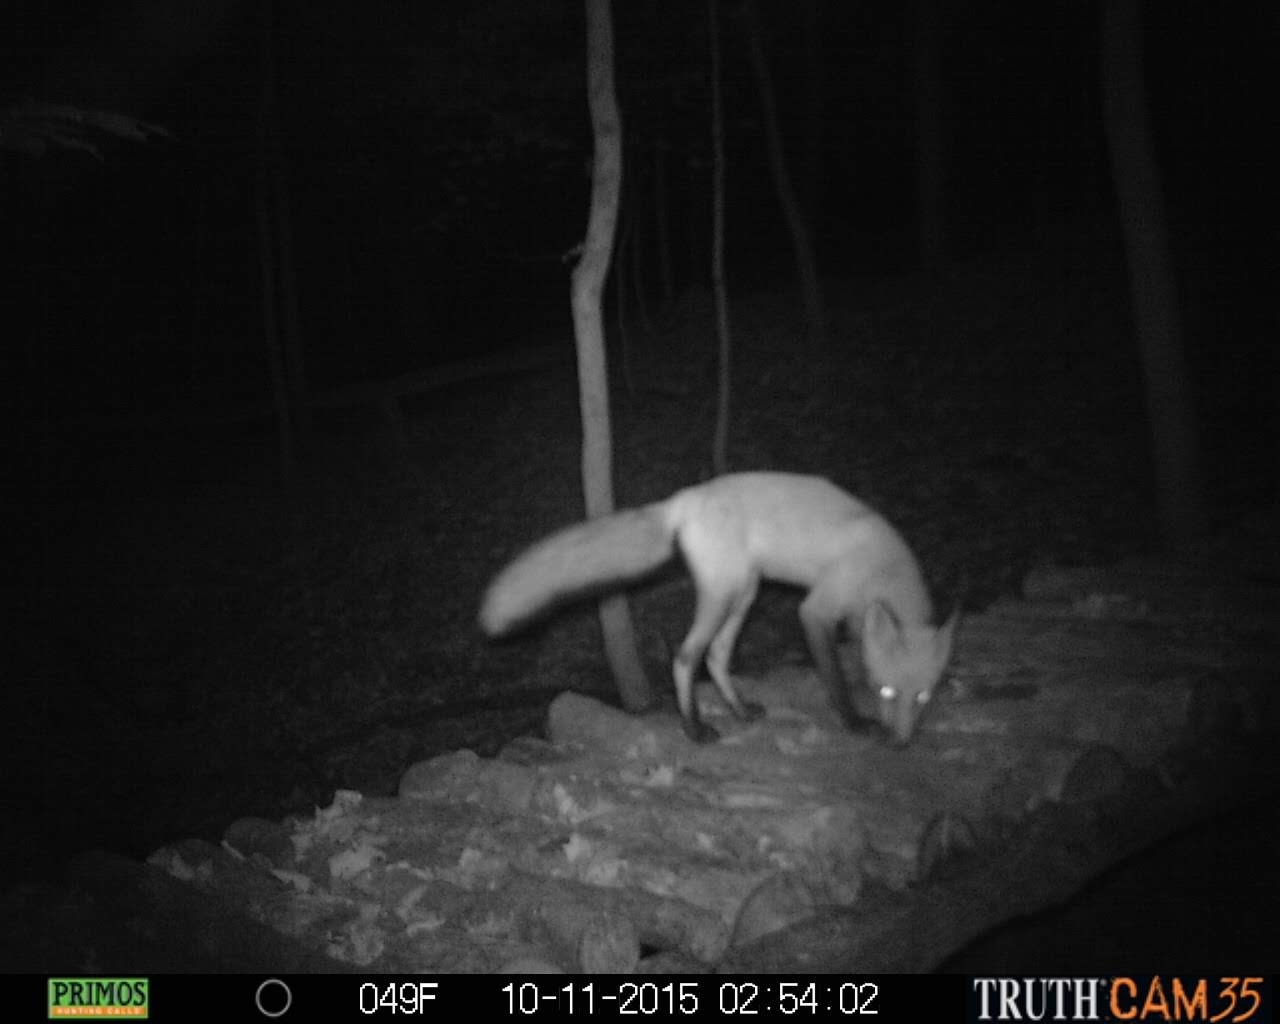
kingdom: Animalia
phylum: Chordata
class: Mammalia
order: Carnivora
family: Canidae
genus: Vulpes
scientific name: Vulpes vulpes
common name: Red fox
